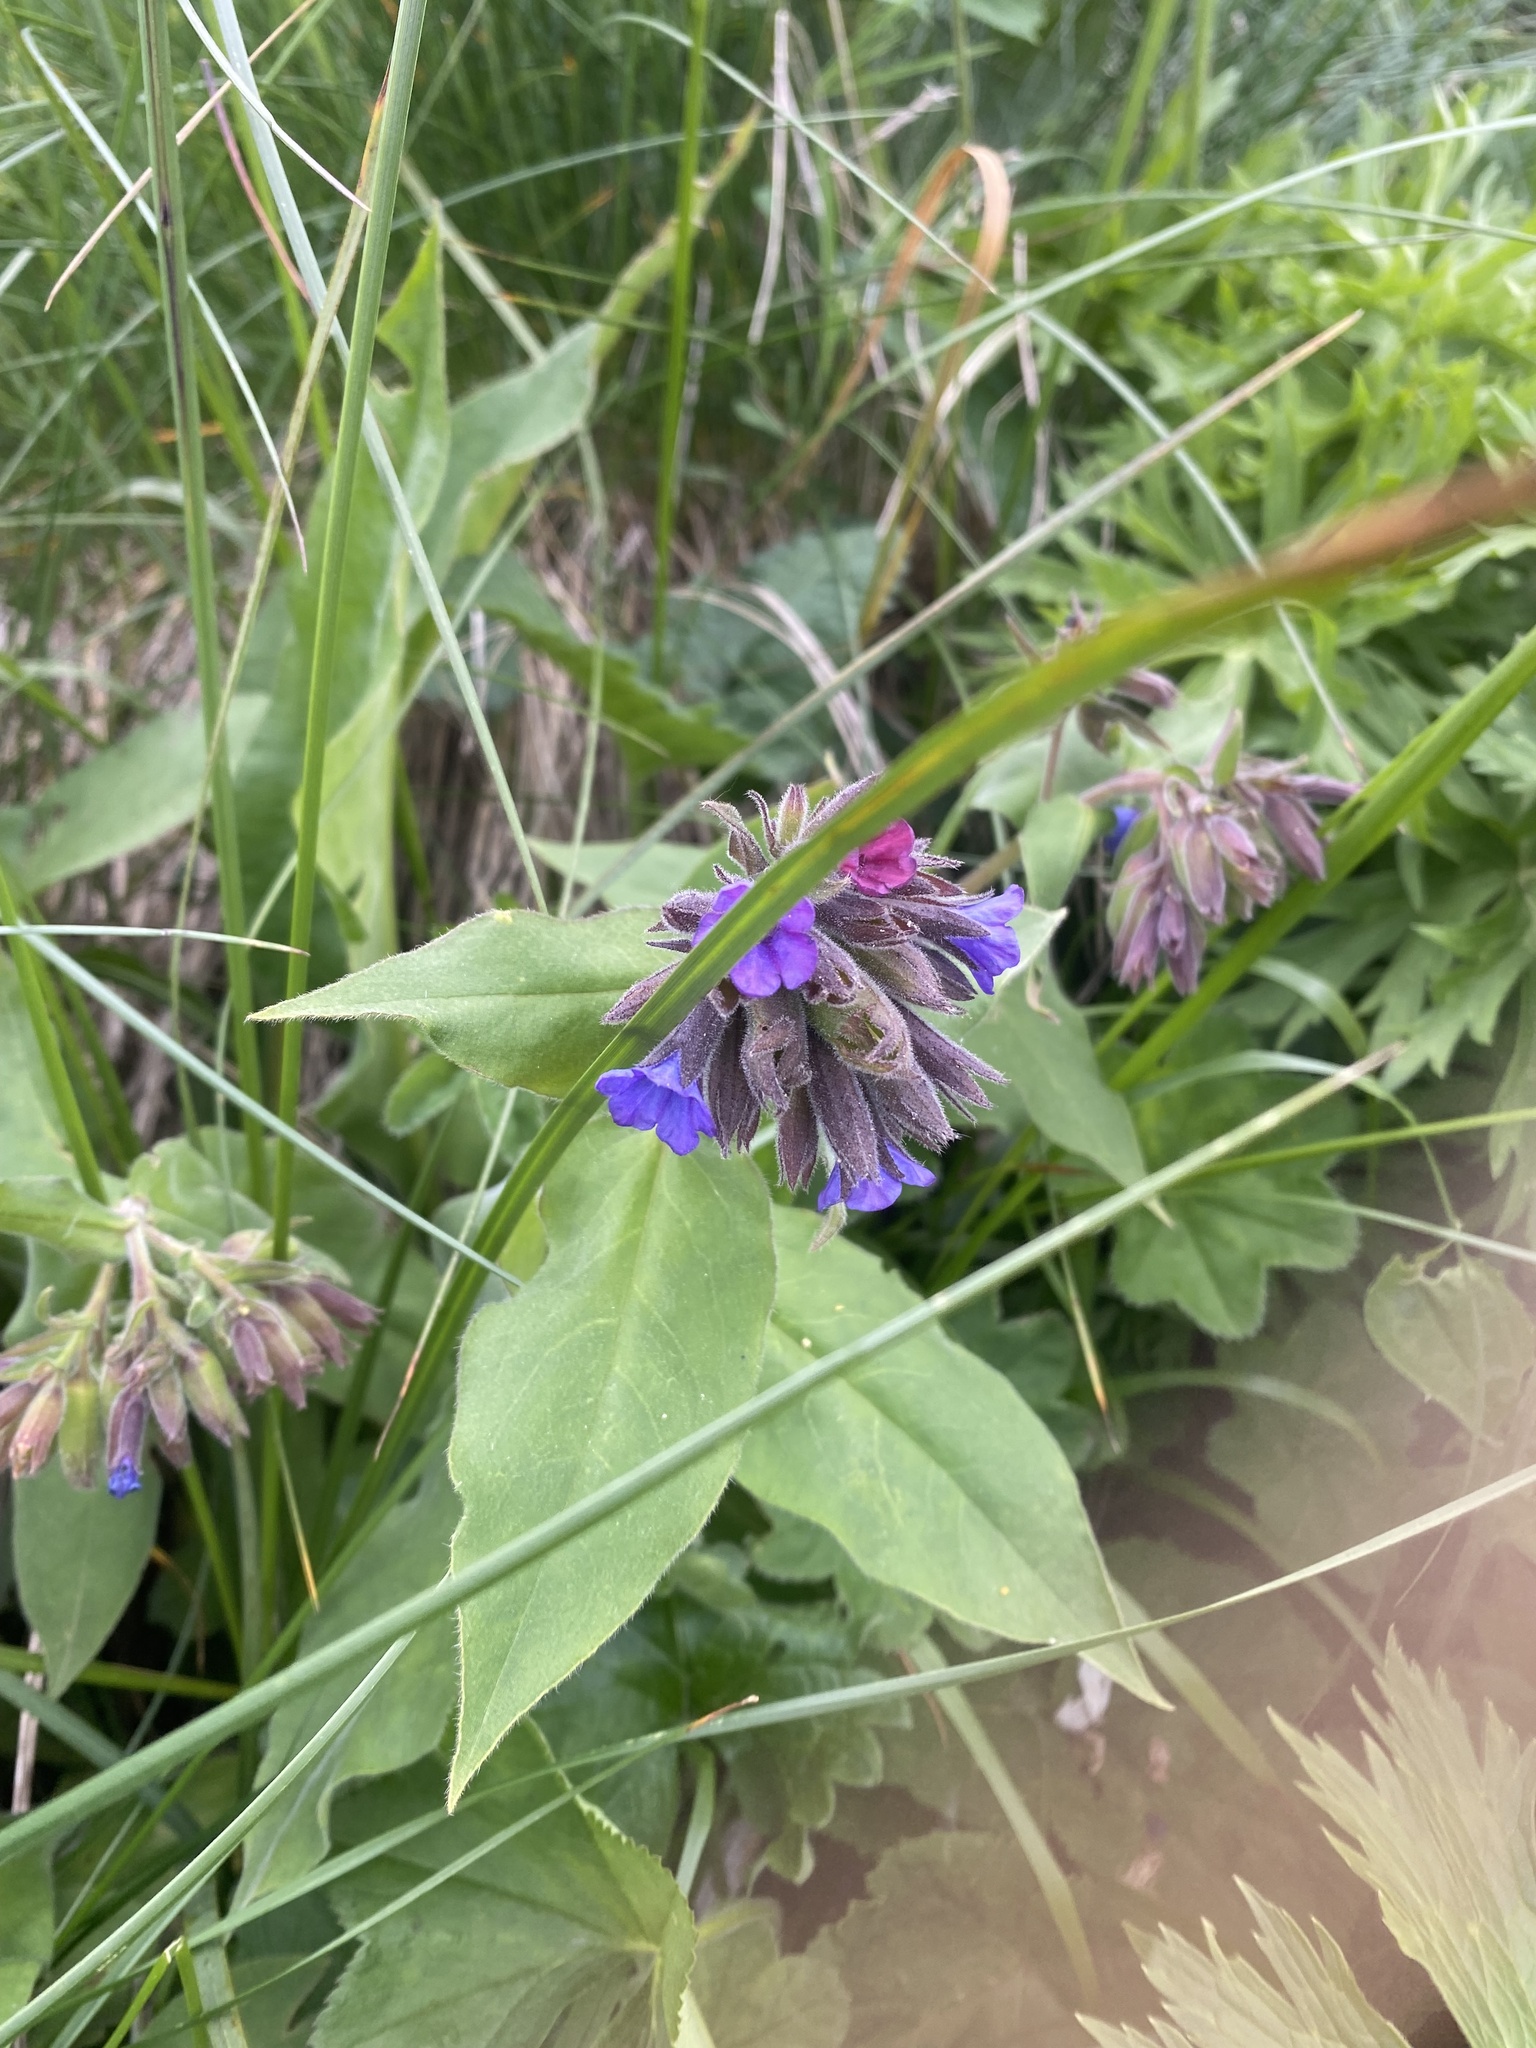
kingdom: Plantae
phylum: Tracheophyta
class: Magnoliopsida
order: Boraginales
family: Boraginaceae
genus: Pulmonaria
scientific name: Pulmonaria mollis
